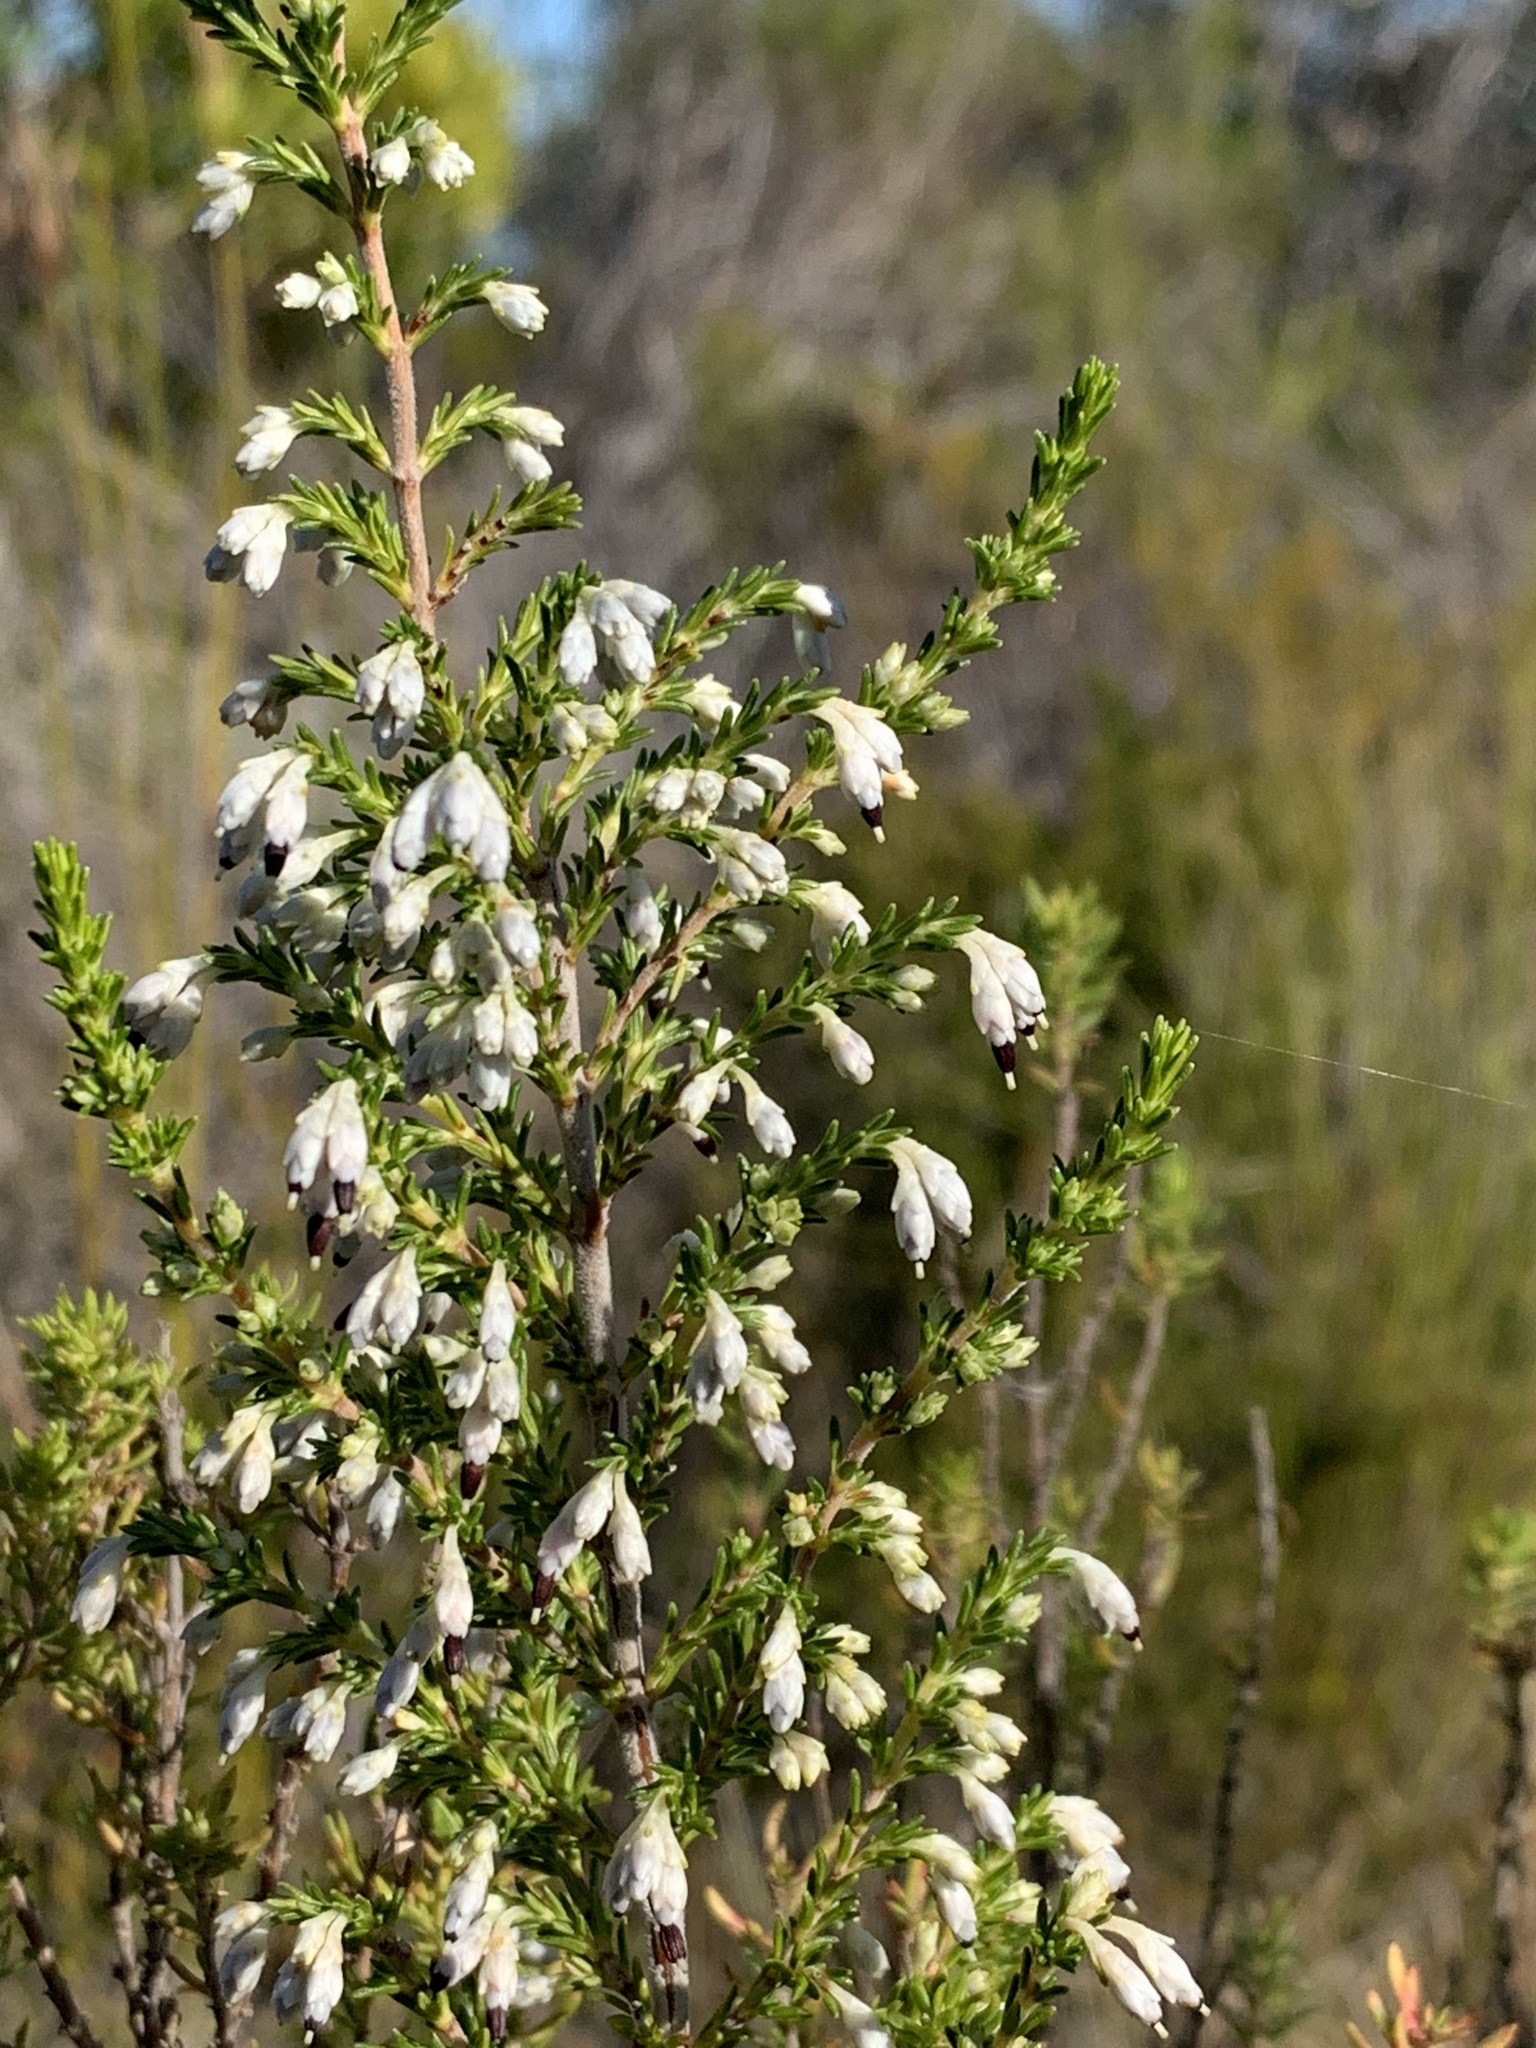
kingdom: Plantae
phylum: Tracheophyta
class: Magnoliopsida
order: Ericales
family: Ericaceae
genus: Erica
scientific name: Erica imbricata
